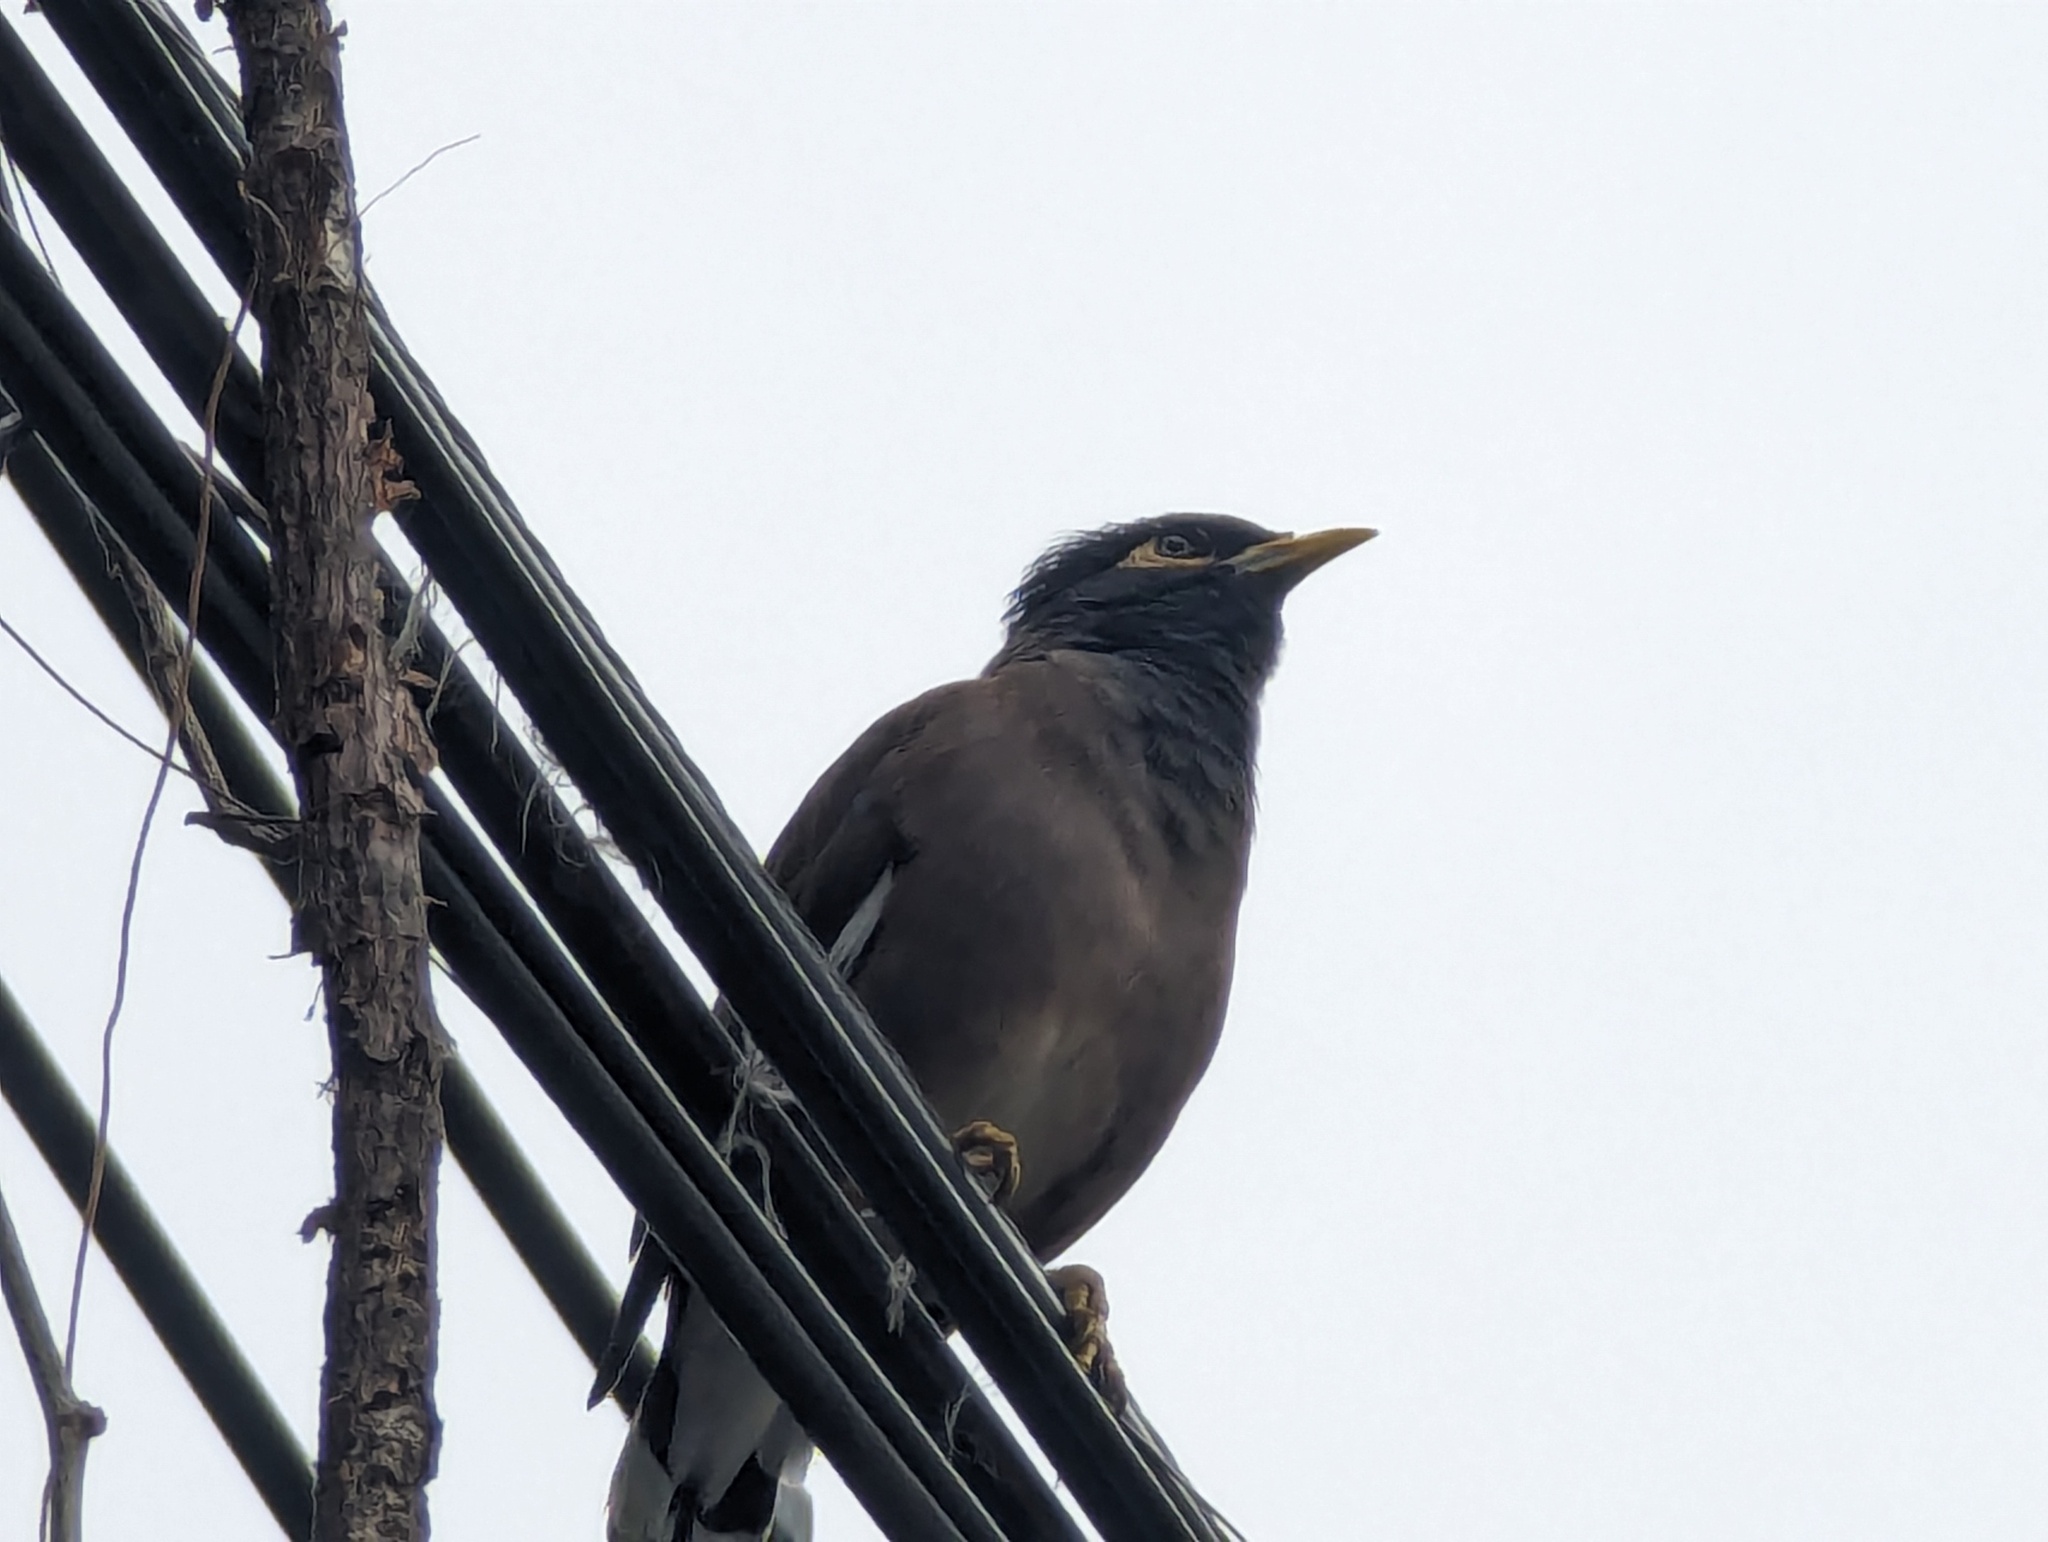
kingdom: Animalia
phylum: Chordata
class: Aves
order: Passeriformes
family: Sturnidae
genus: Acridotheres
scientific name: Acridotheres tristis
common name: Common myna
